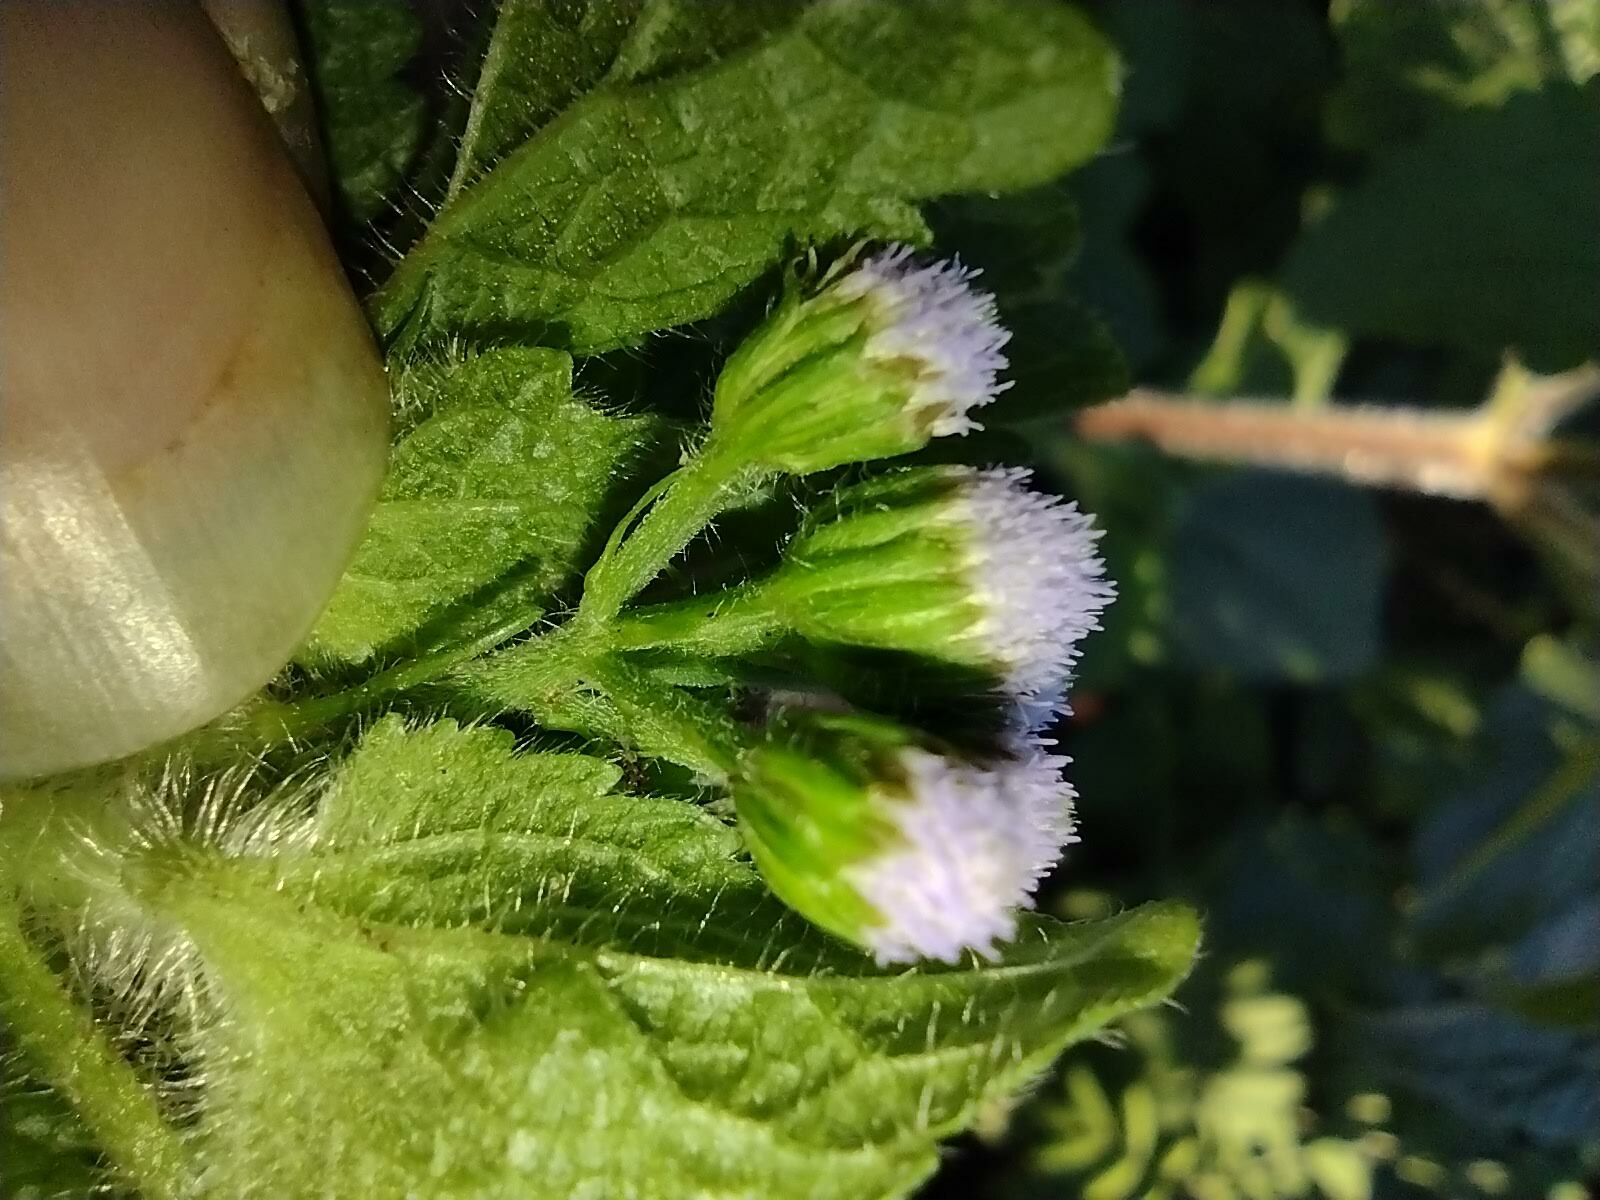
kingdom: Plantae
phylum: Tracheophyta
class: Magnoliopsida
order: Asterales
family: Asteraceae
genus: Ageratum
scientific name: Ageratum conyzoides
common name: Tropical whiteweed
